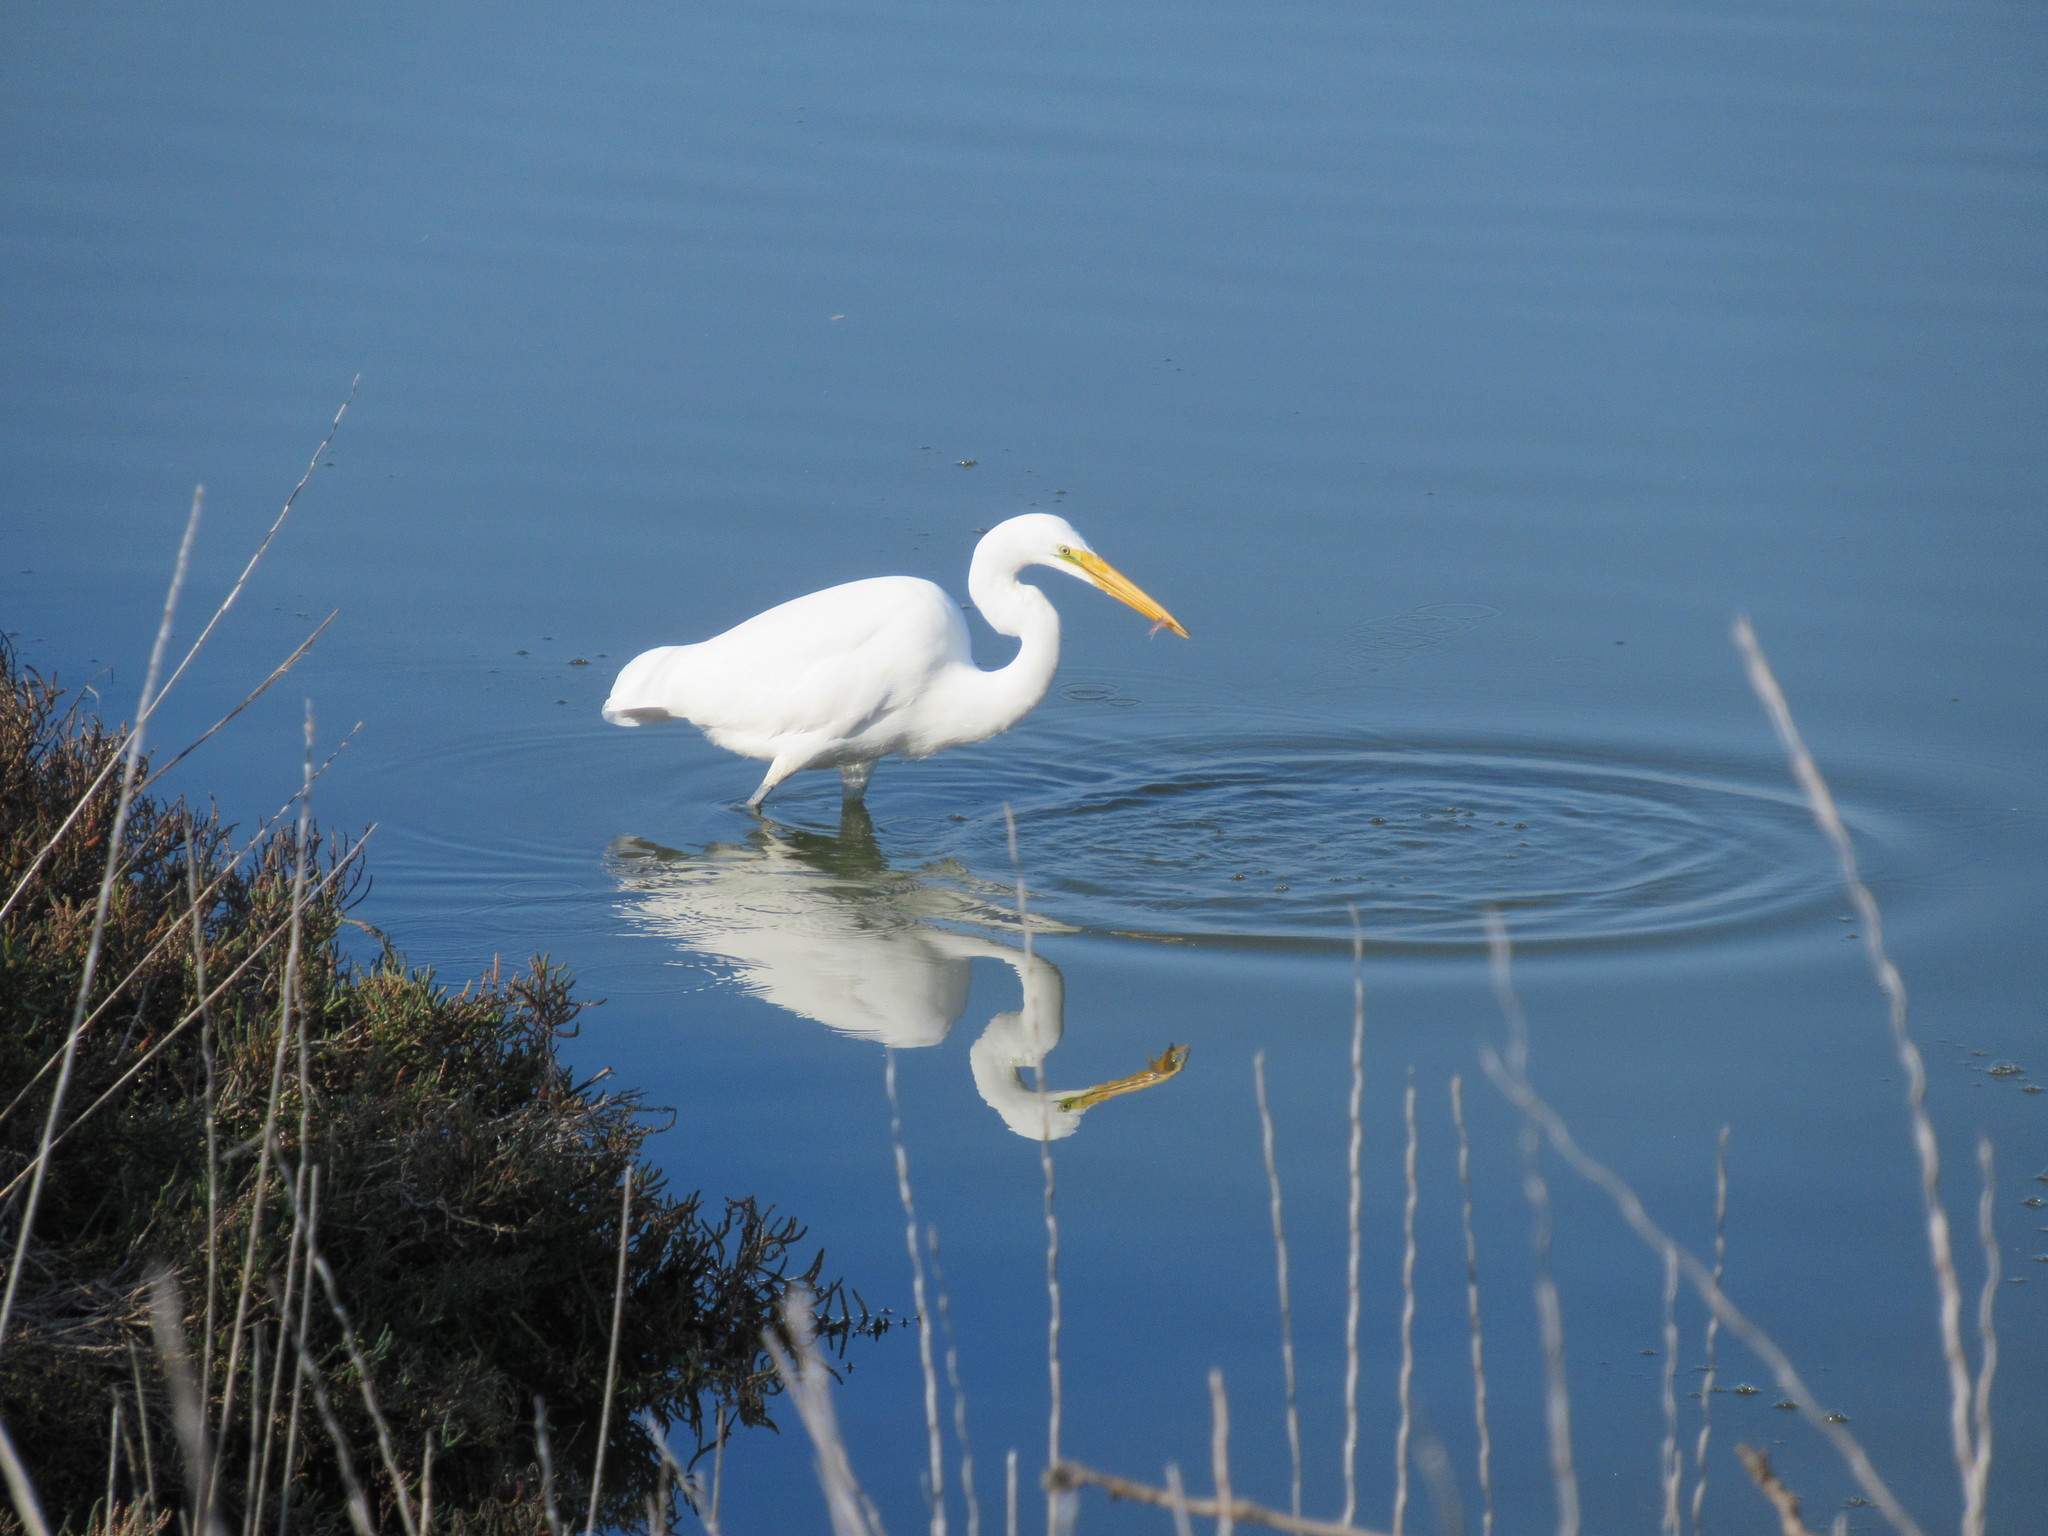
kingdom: Animalia
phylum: Chordata
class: Aves
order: Pelecaniformes
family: Ardeidae
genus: Ardea
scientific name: Ardea alba
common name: Great egret
